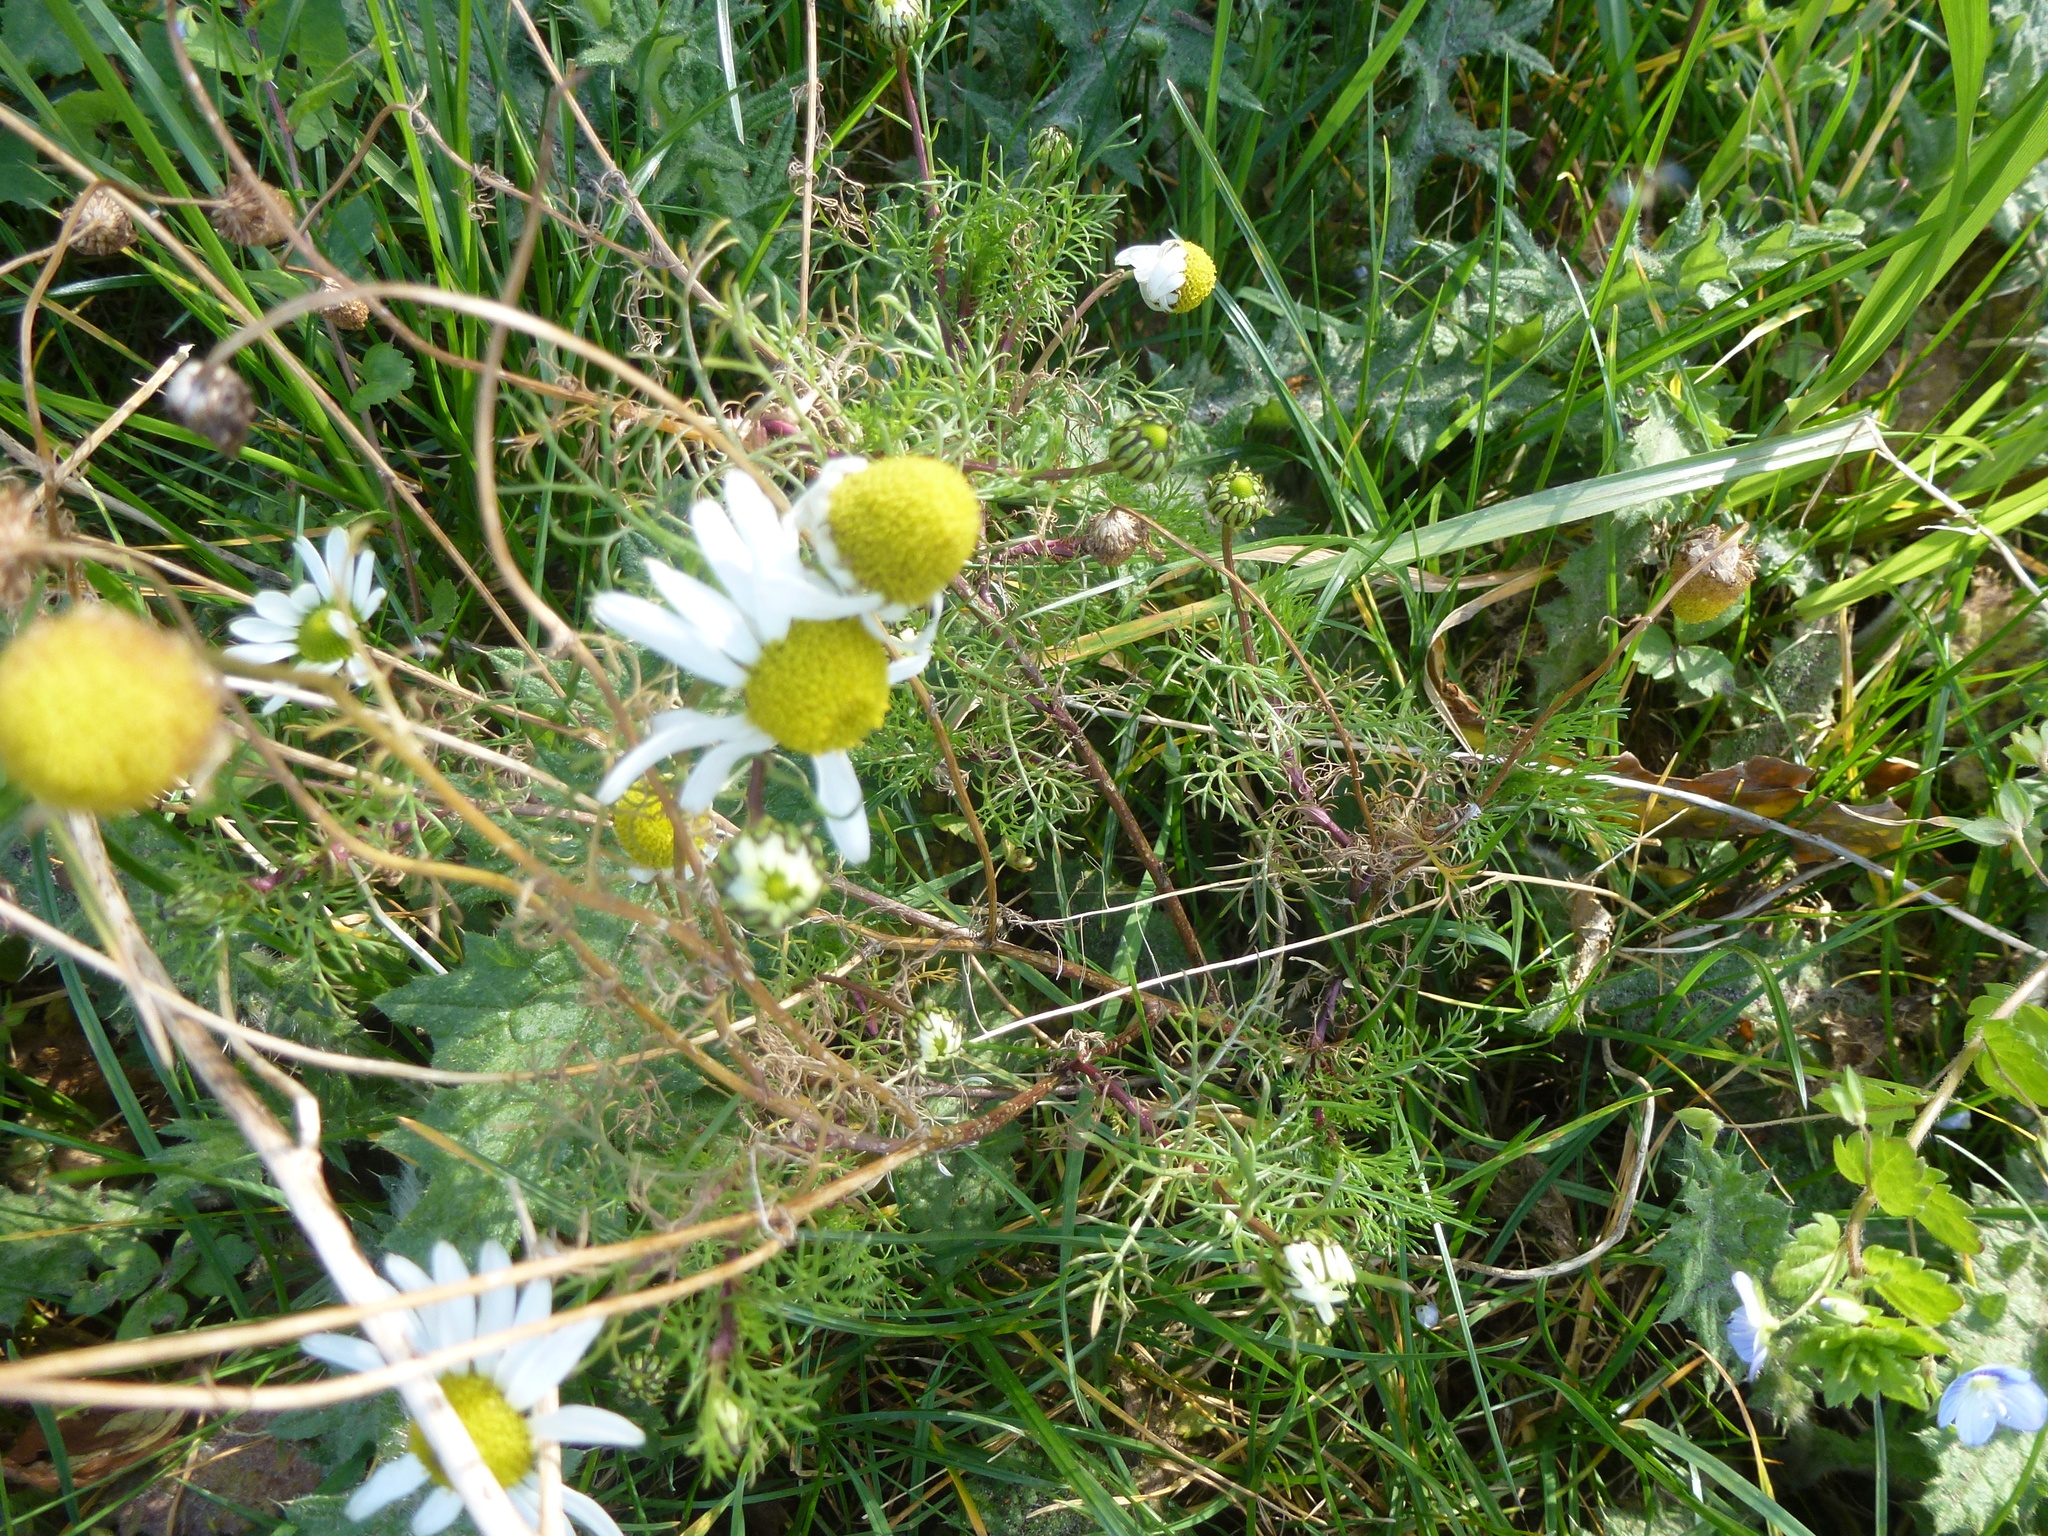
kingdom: Plantae
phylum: Tracheophyta
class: Magnoliopsida
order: Asterales
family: Asteraceae
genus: Tripleurospermum
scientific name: Tripleurospermum inodorum
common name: Scentless mayweed
